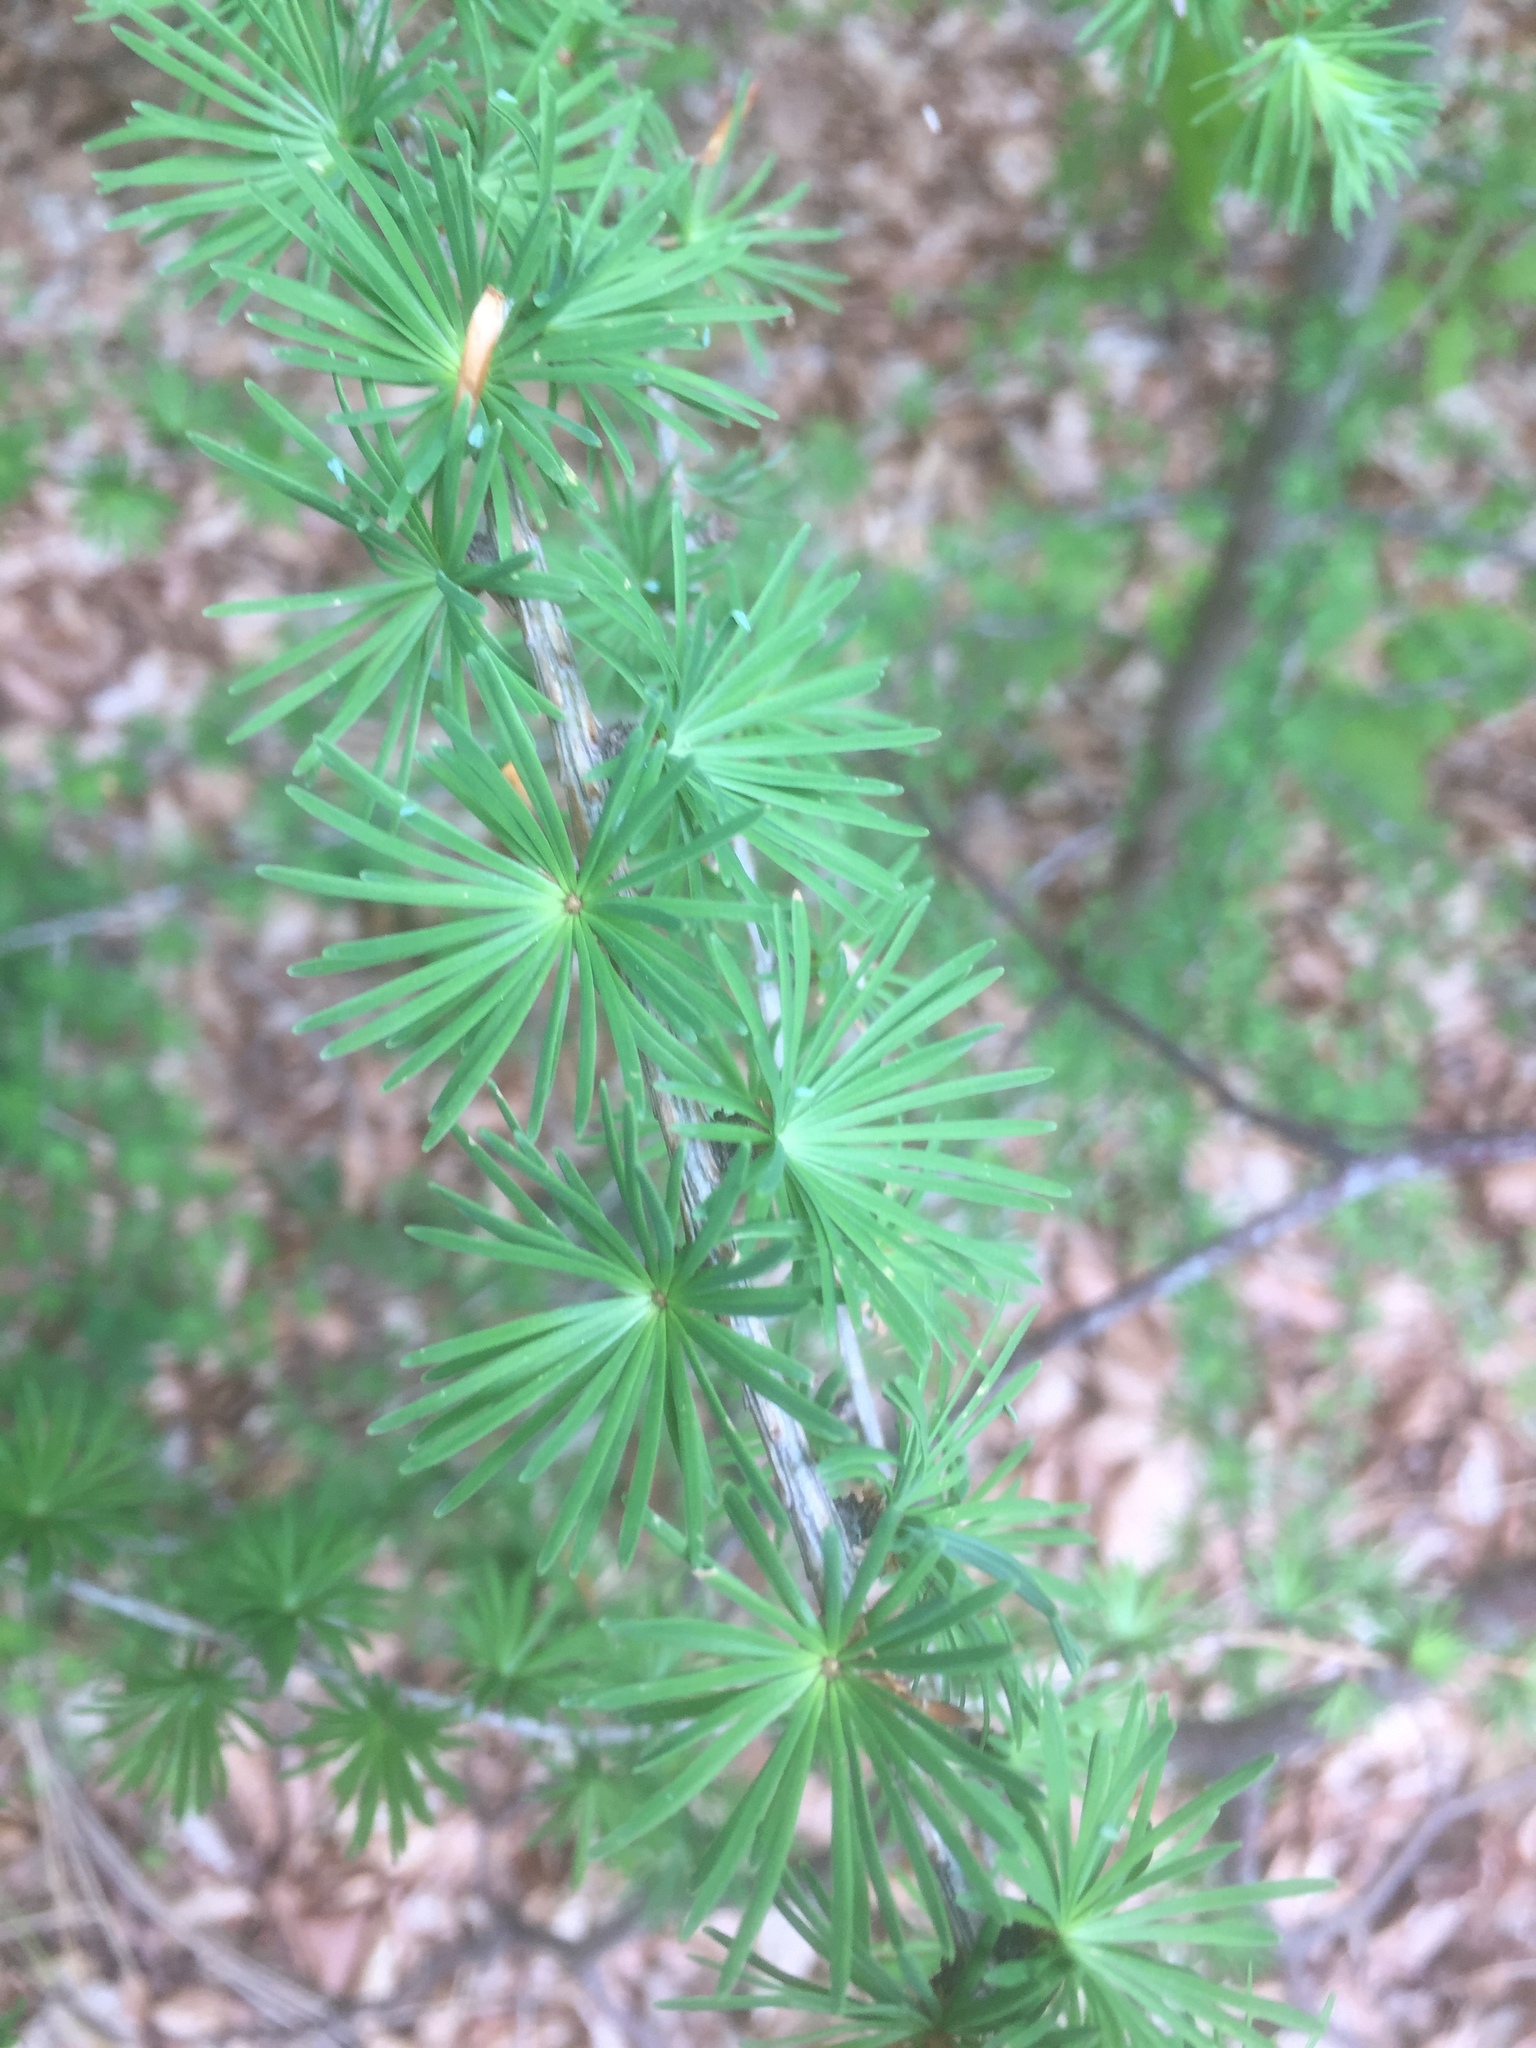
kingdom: Plantae
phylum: Tracheophyta
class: Pinopsida
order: Pinales
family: Pinaceae
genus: Larix
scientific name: Larix decidua
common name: European larch
